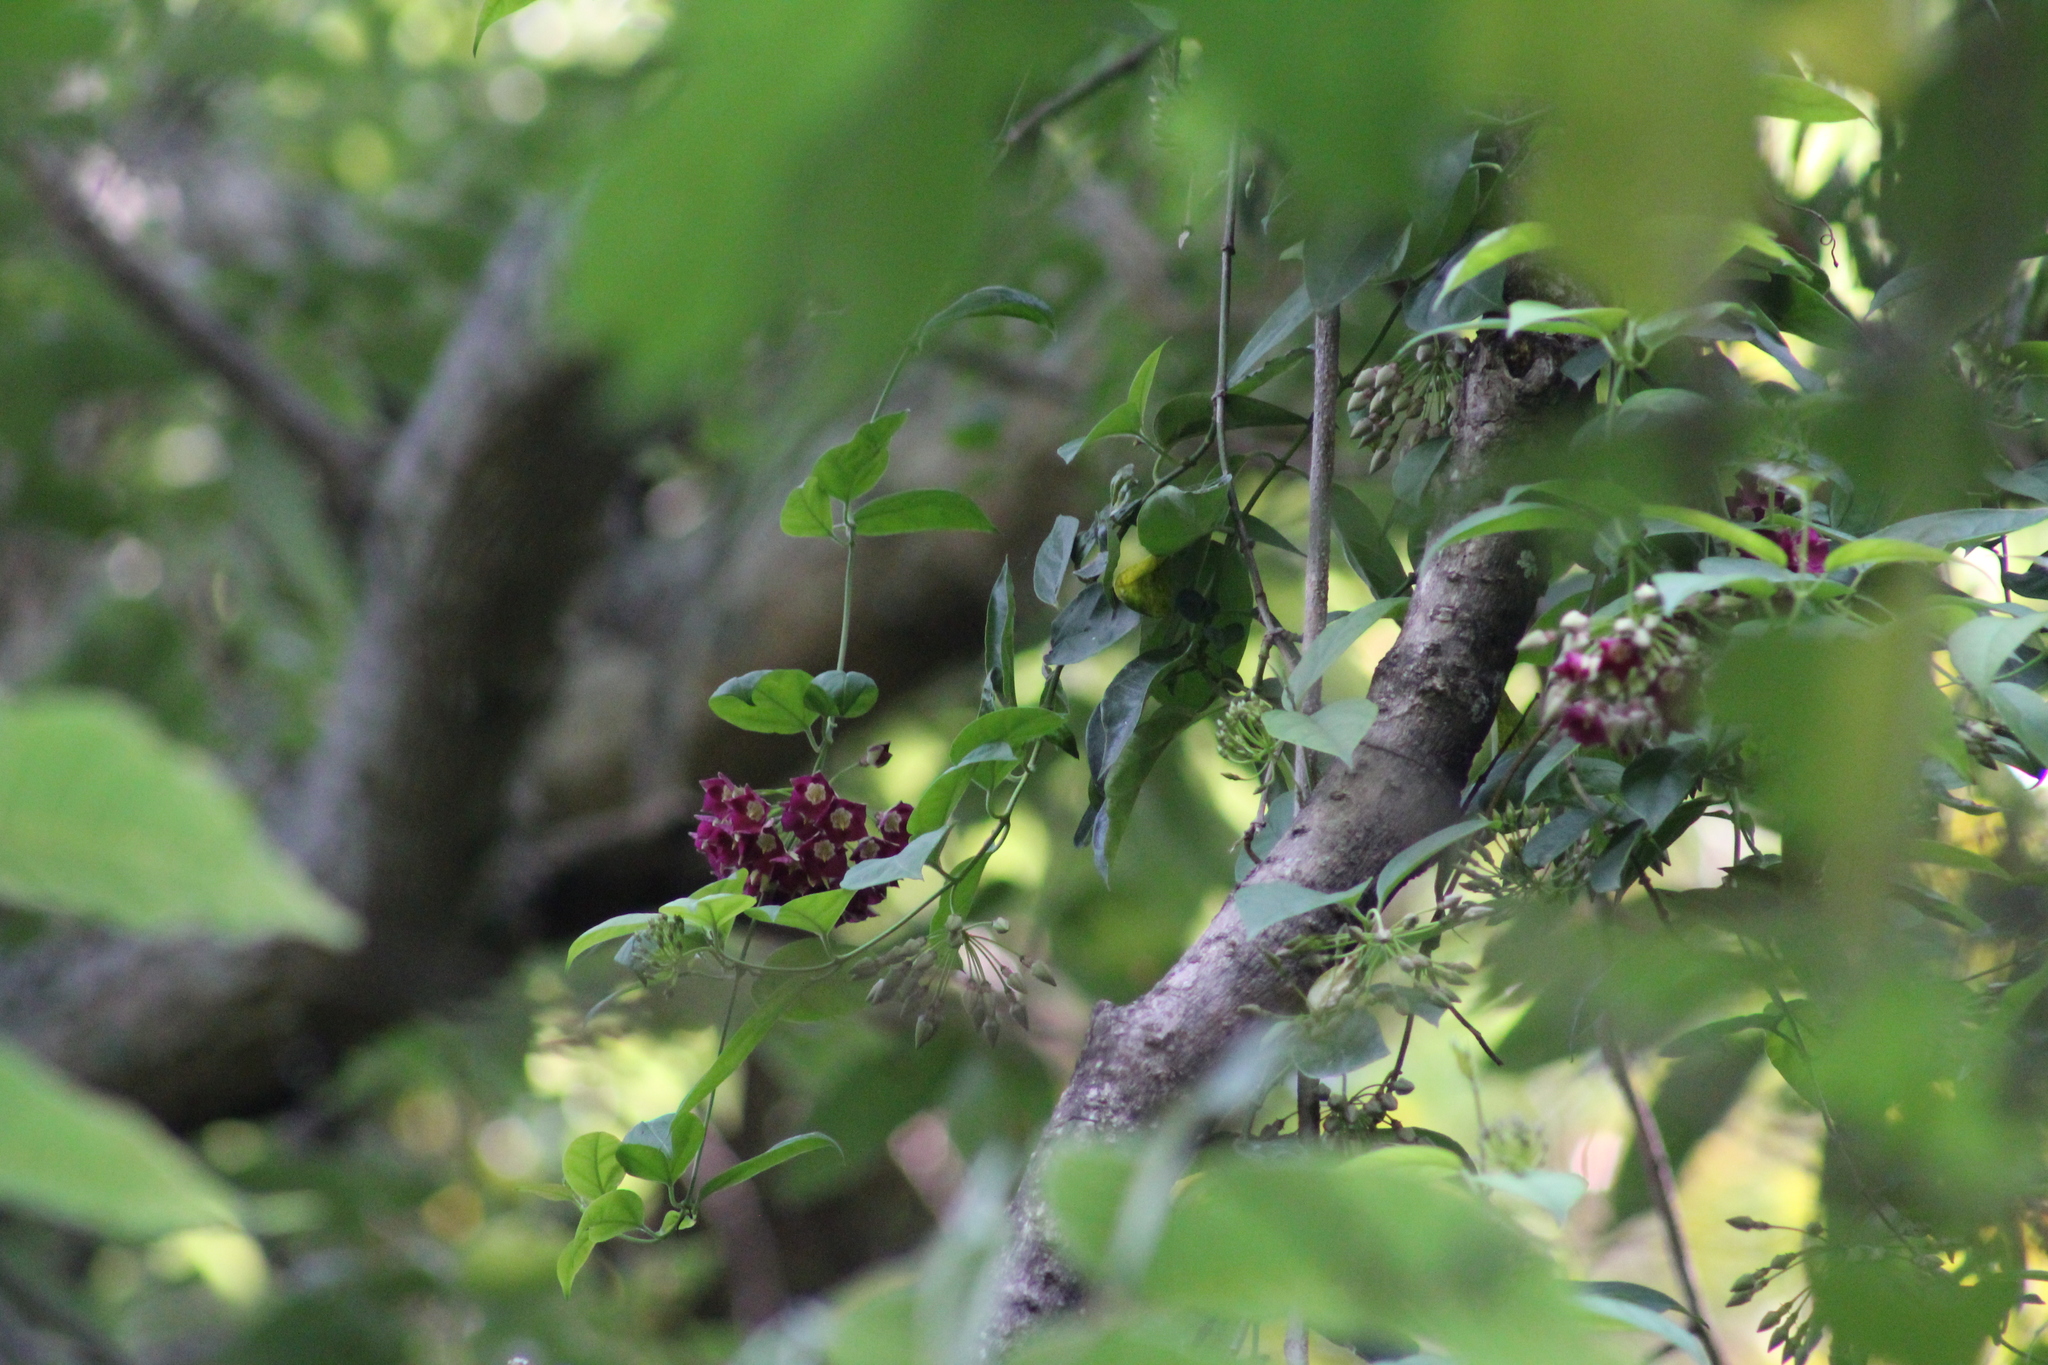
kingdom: Plantae
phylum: Tracheophyta
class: Magnoliopsida
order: Gentianales
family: Apocynaceae
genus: Thenardia
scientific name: Thenardia floribunda
